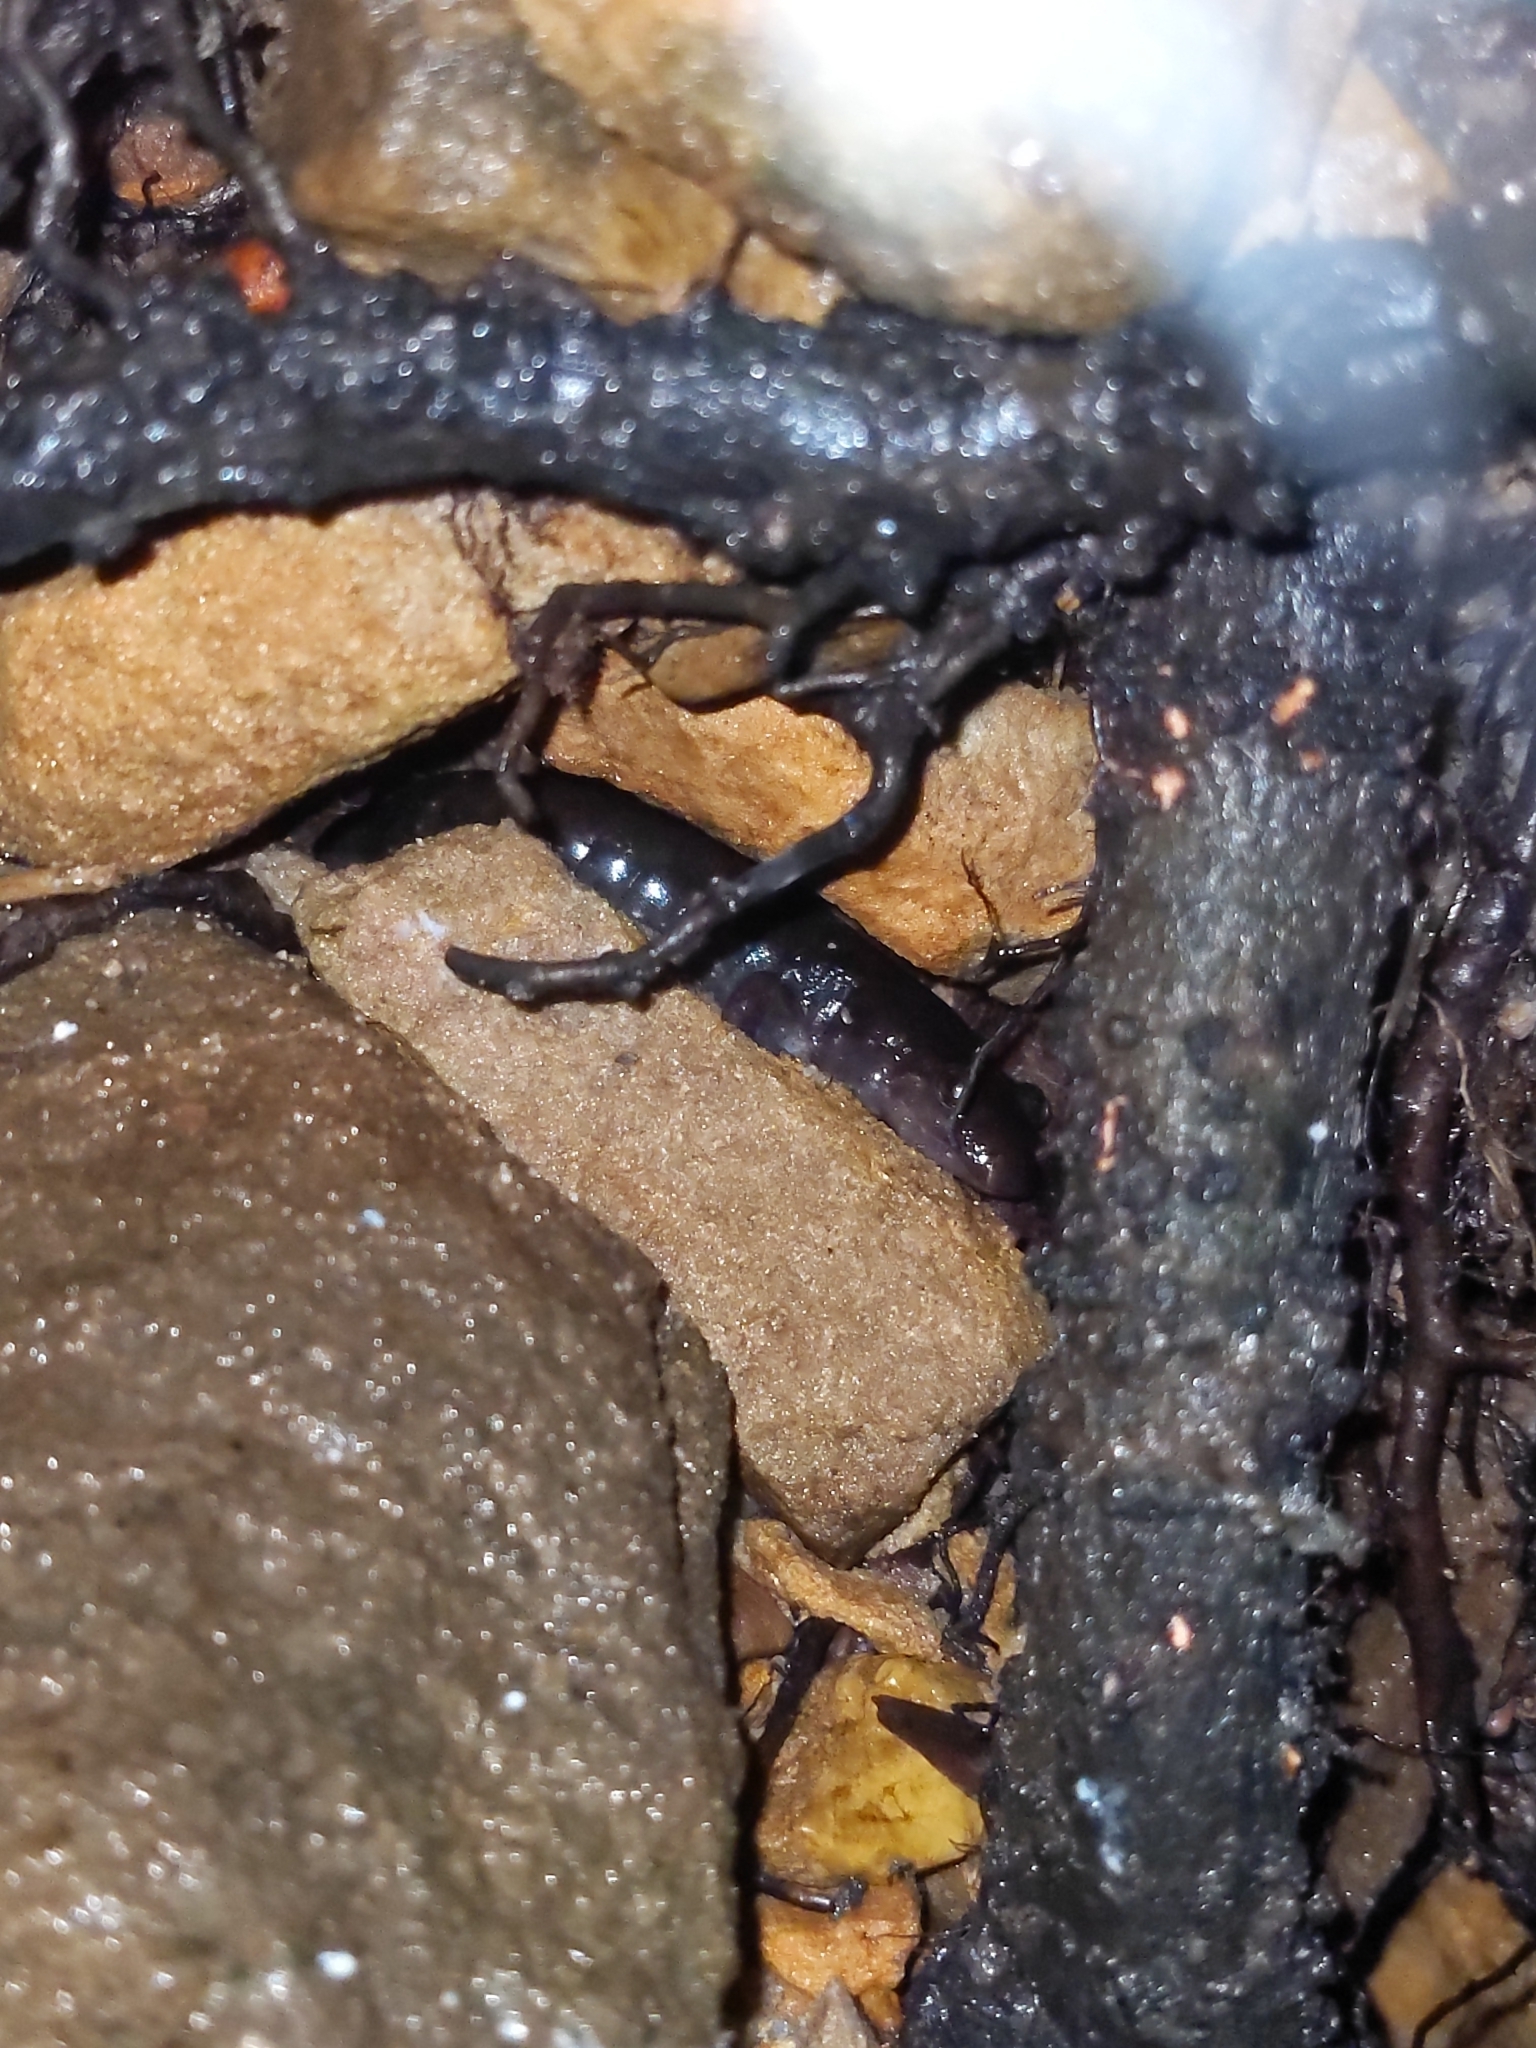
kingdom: Animalia
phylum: Chordata
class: Amphibia
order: Caudata
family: Plethodontidae
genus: Desmognathus
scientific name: Desmognathus monticola
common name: Seal salamander
